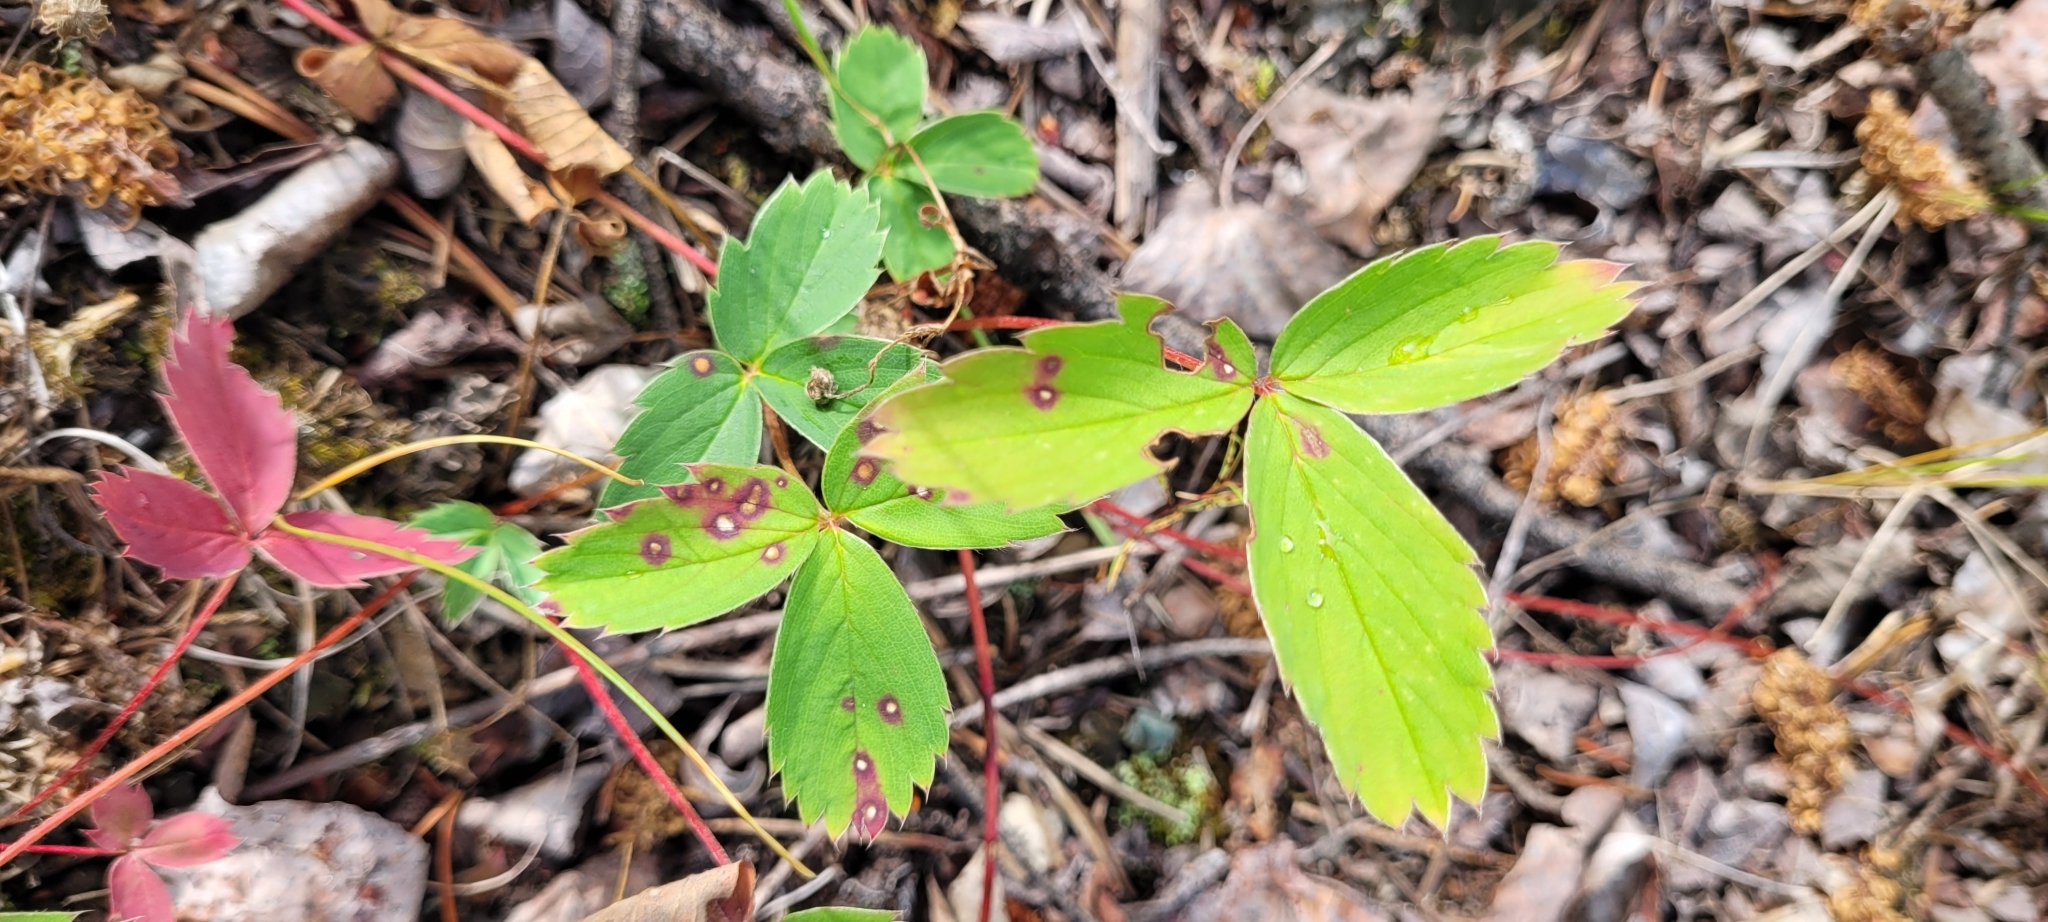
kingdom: Plantae
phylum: Tracheophyta
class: Magnoliopsida
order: Rosales
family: Rosaceae
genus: Fragaria
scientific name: Fragaria virginiana
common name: Thickleaved wild strawberry
